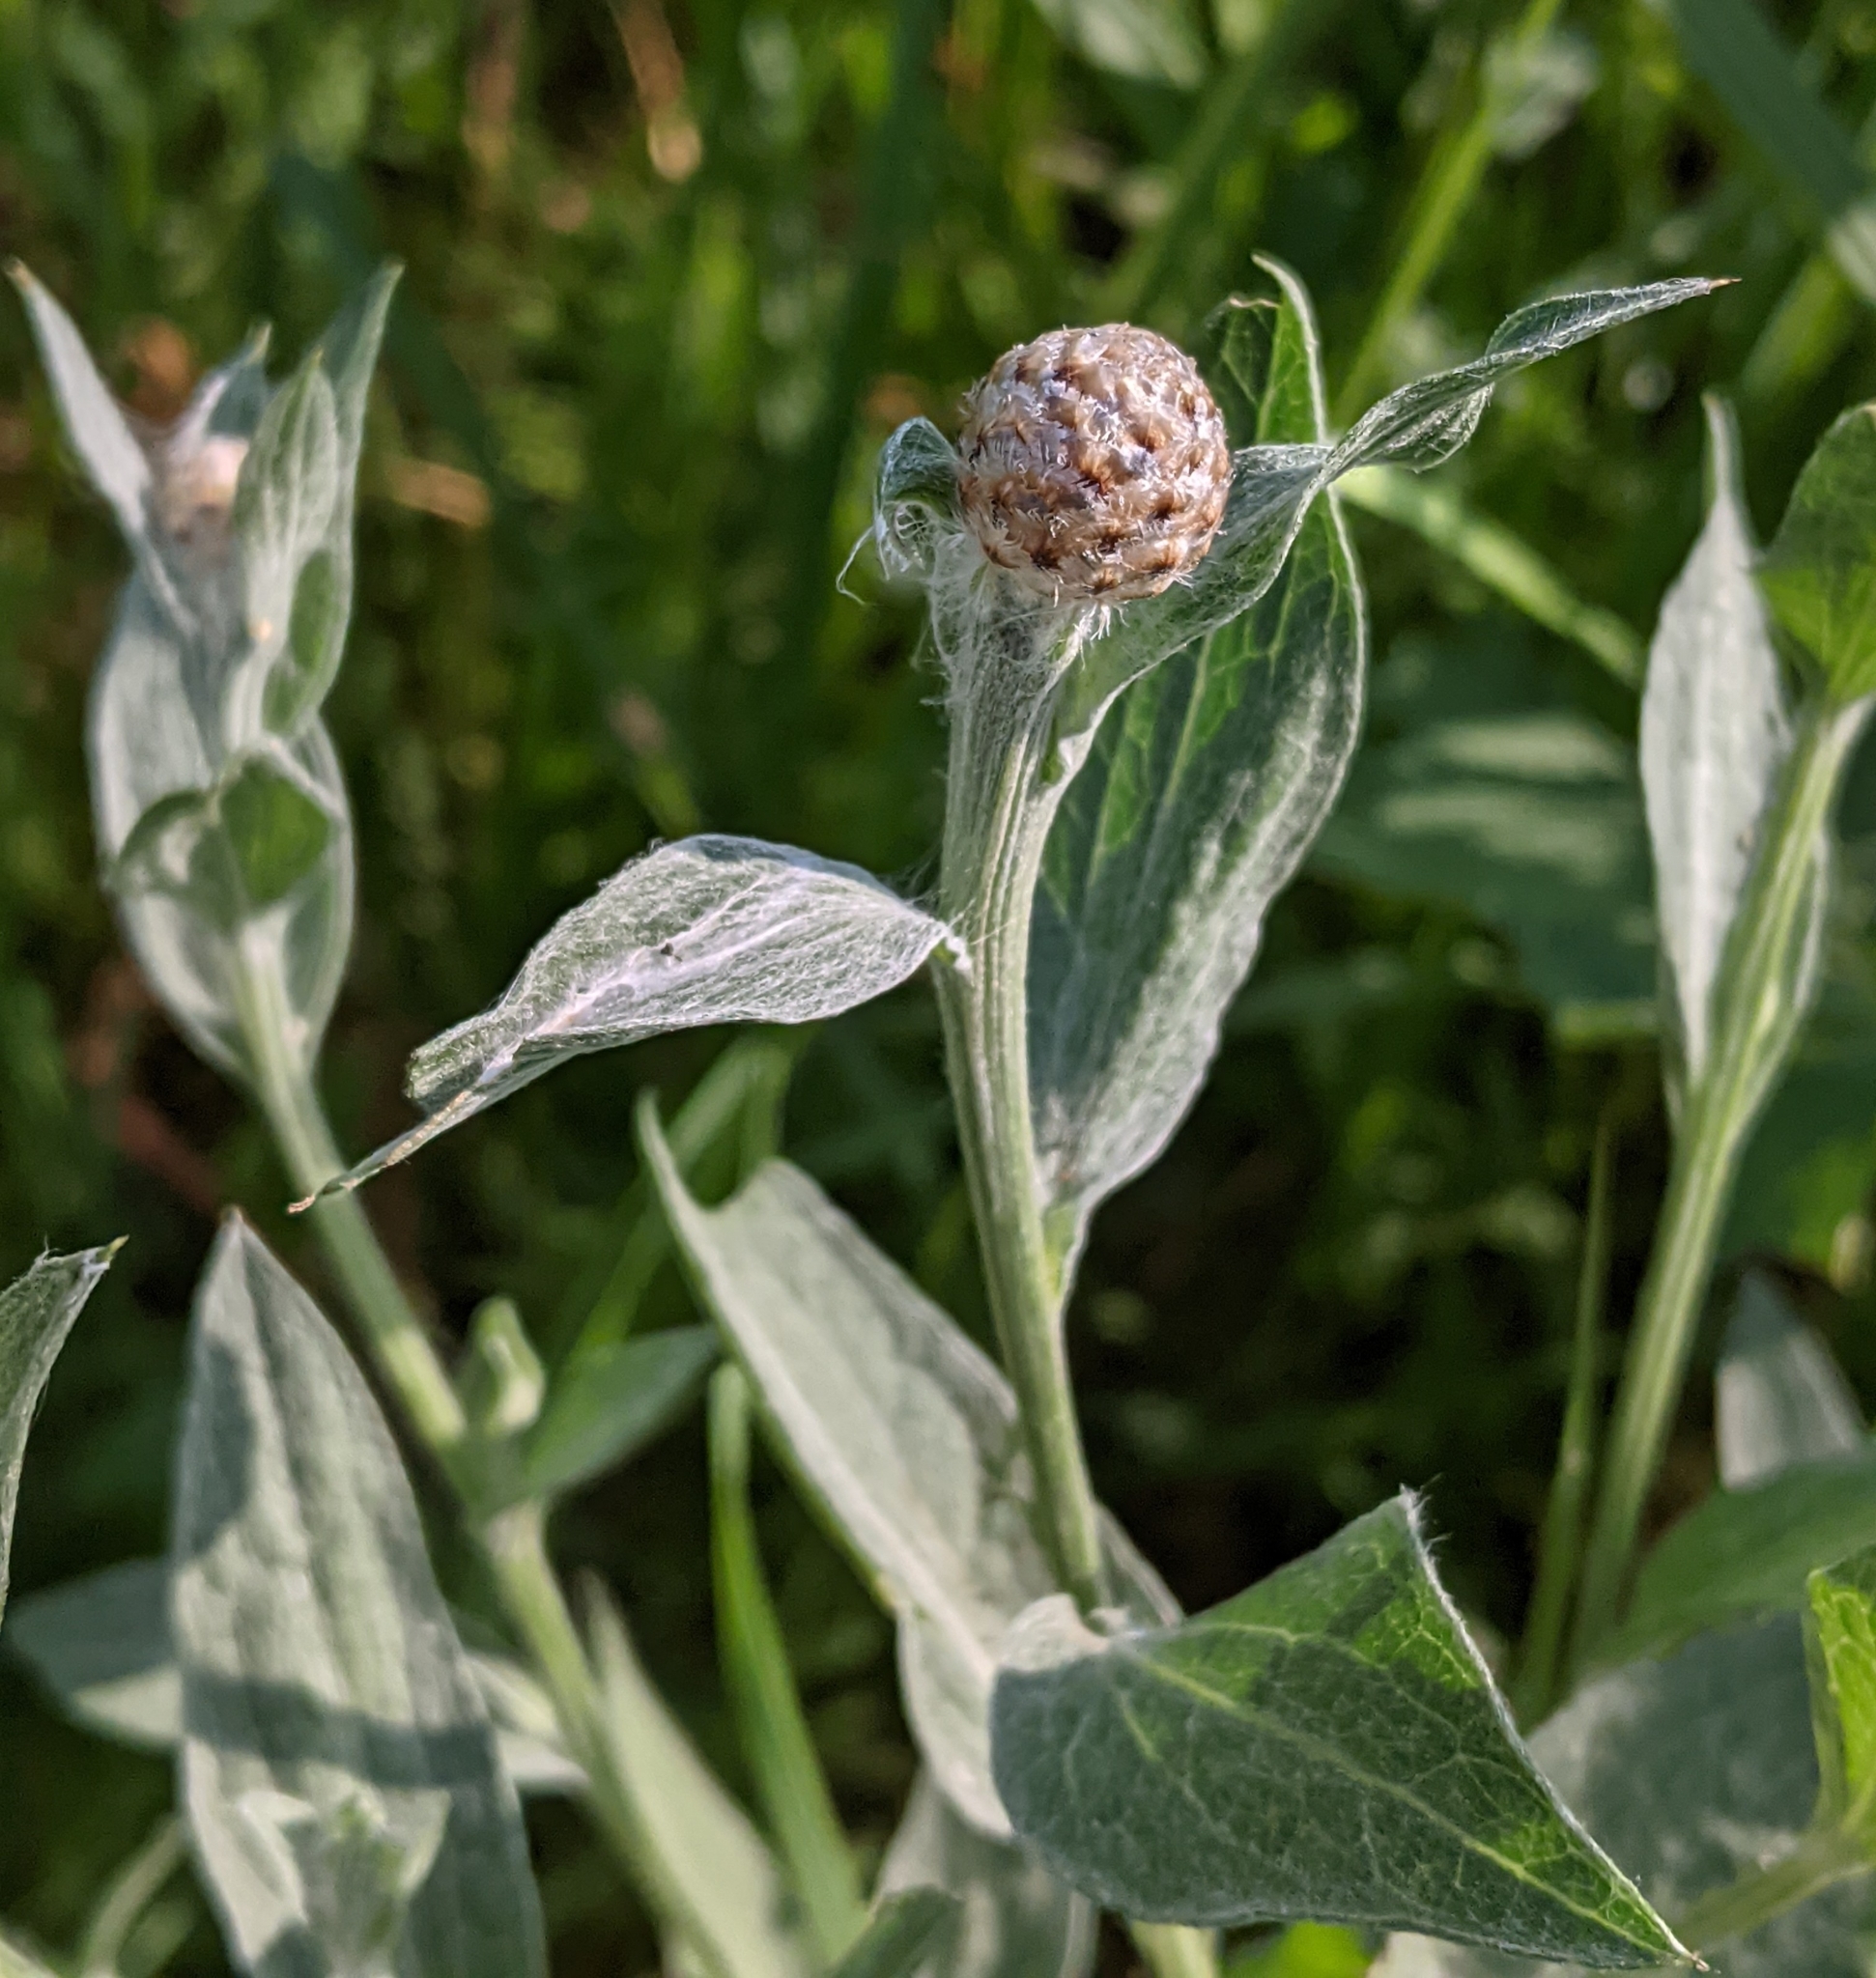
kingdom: Plantae
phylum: Tracheophyta
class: Magnoliopsida
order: Asterales
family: Asteraceae
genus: Centaurea
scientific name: Centaurea jacea
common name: Brown knapweed
